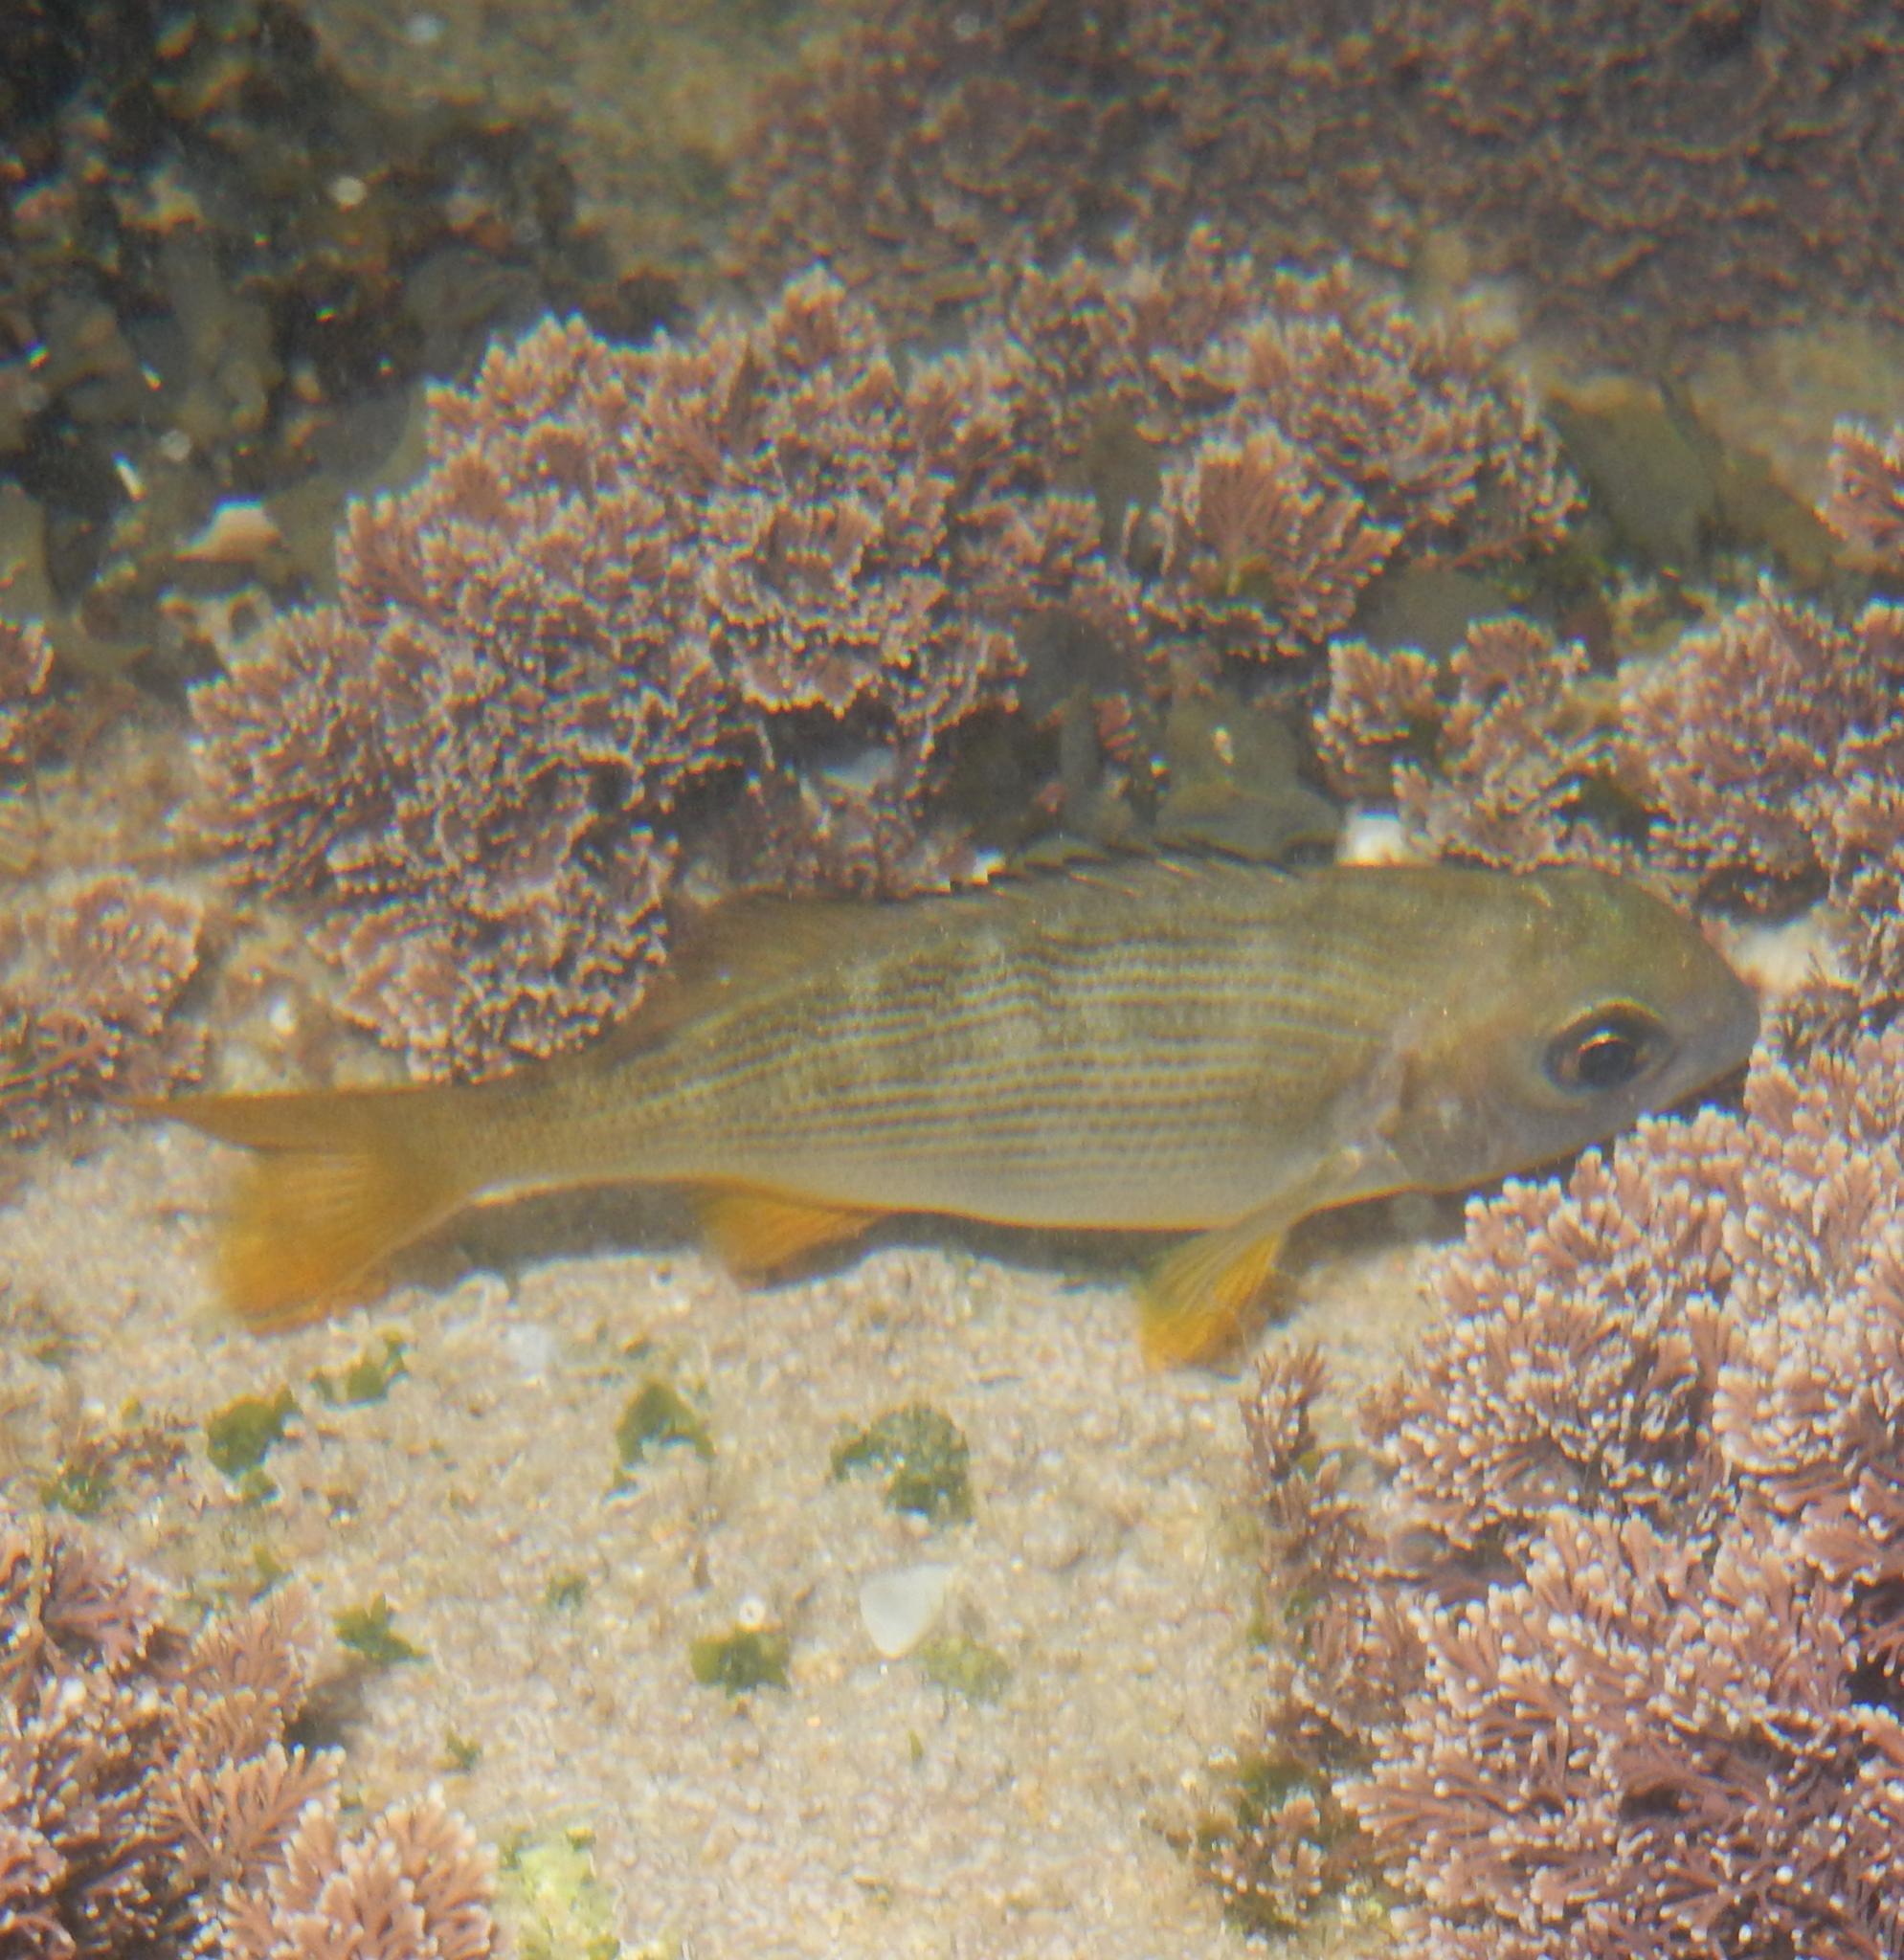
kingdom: Animalia
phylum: Chordata
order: Perciformes
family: Sparidae
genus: Sparodon
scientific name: Sparodon durbanensis
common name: White musselcracker
